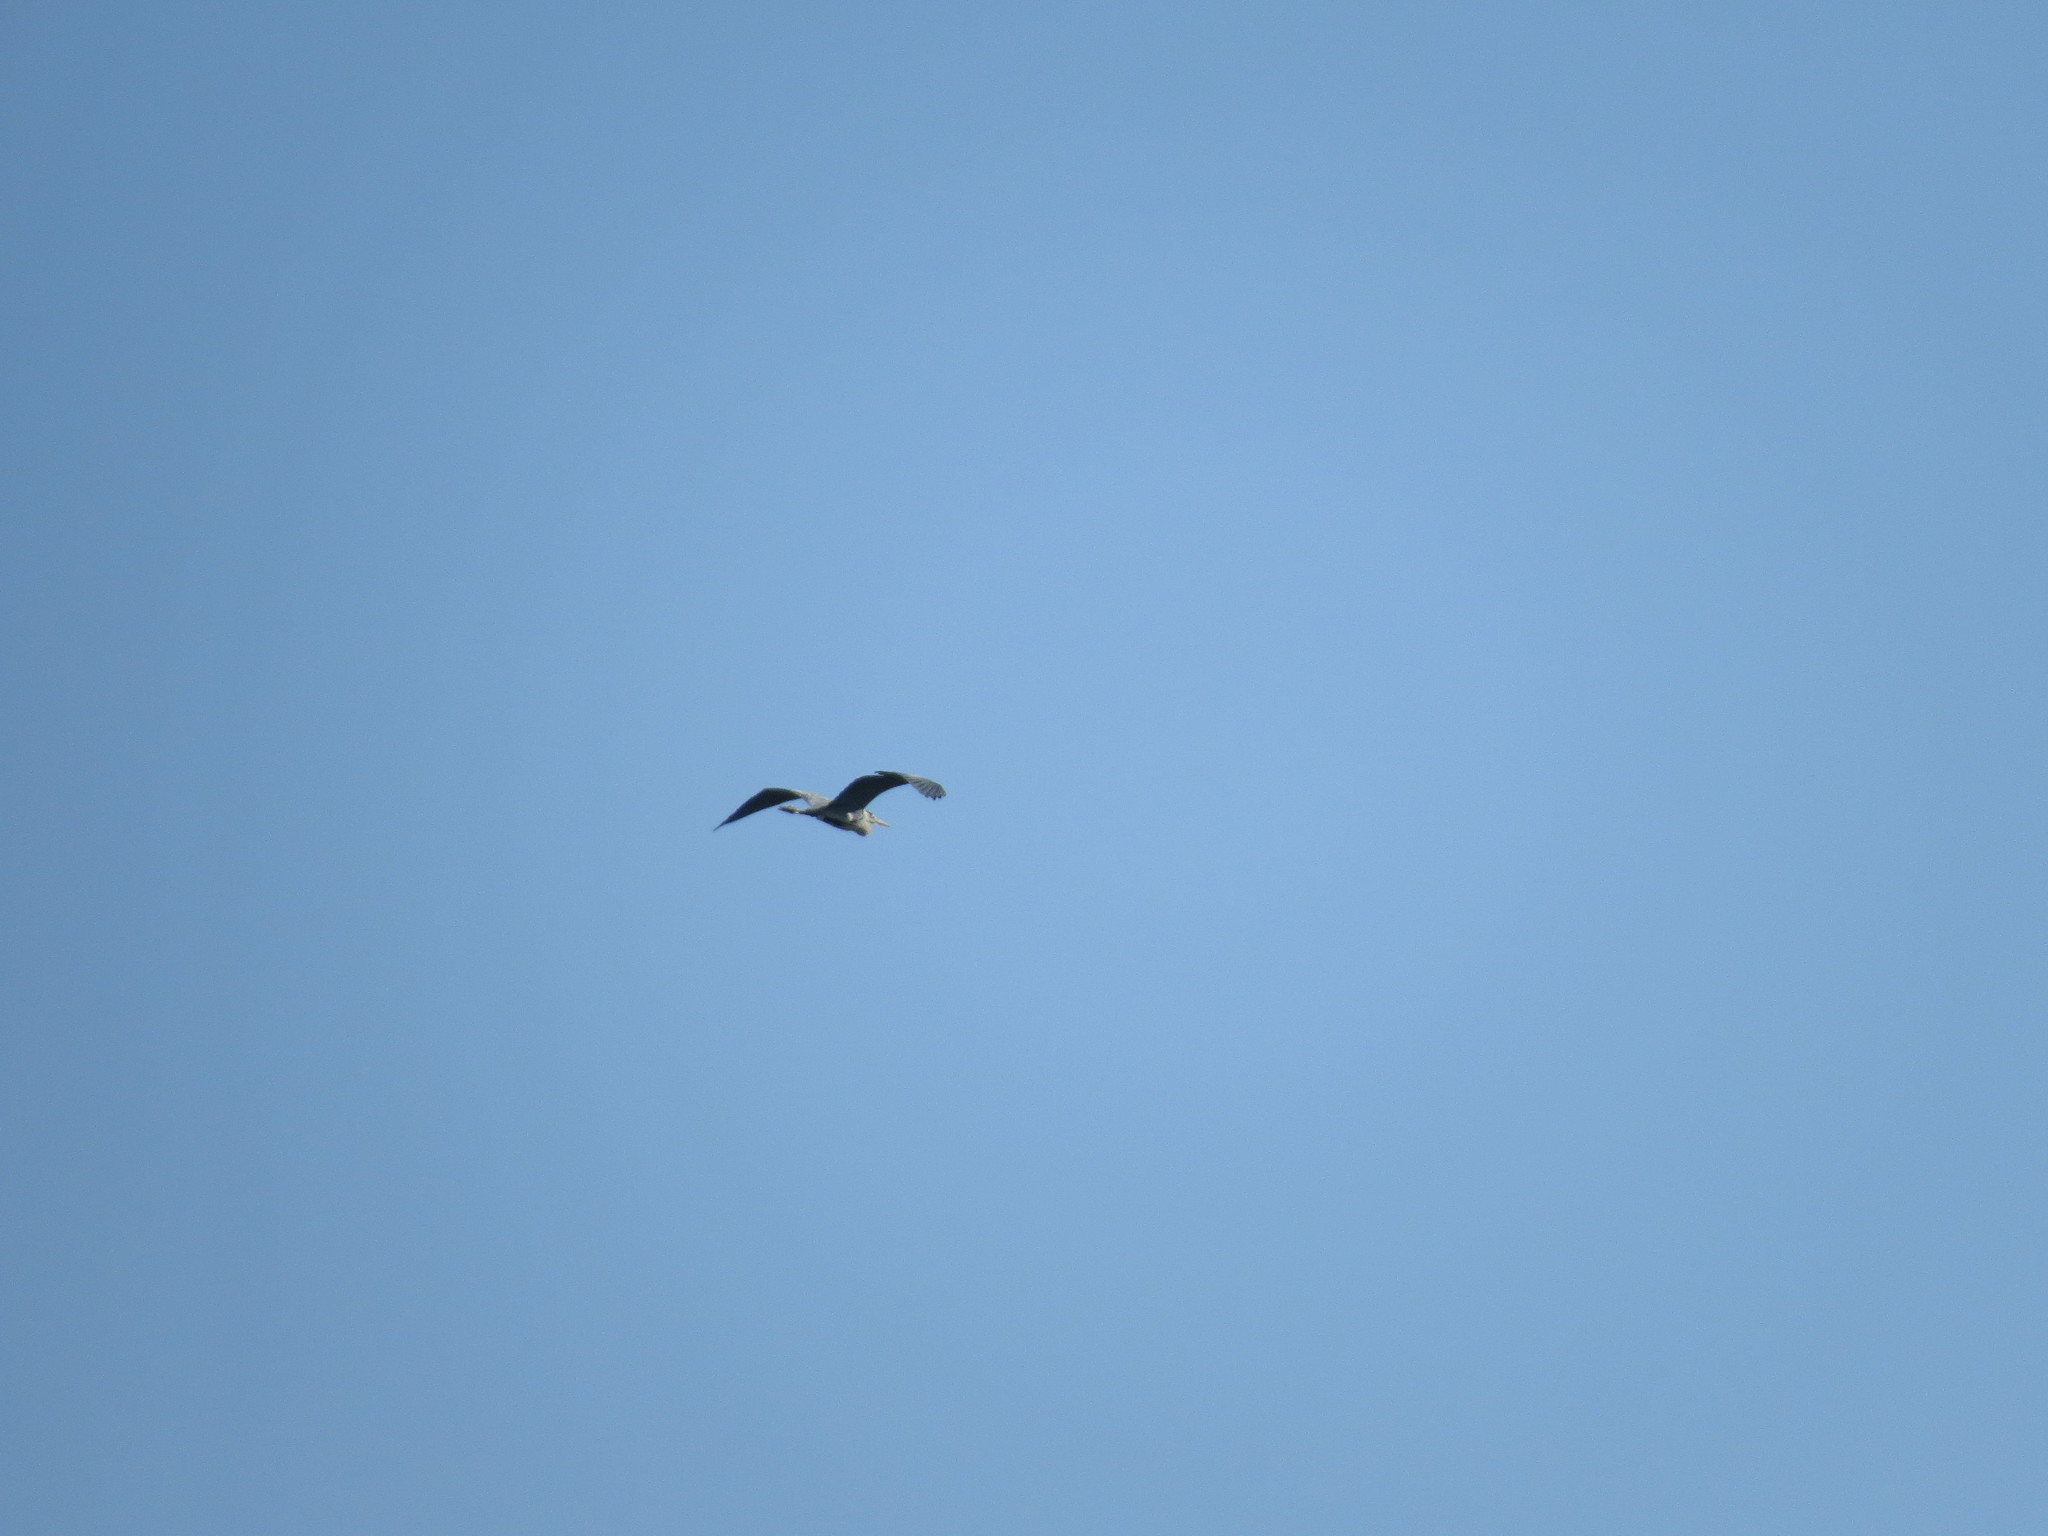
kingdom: Animalia
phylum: Chordata
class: Aves
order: Pelecaniformes
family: Ardeidae
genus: Ardea
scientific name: Ardea cinerea
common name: Grey heron
